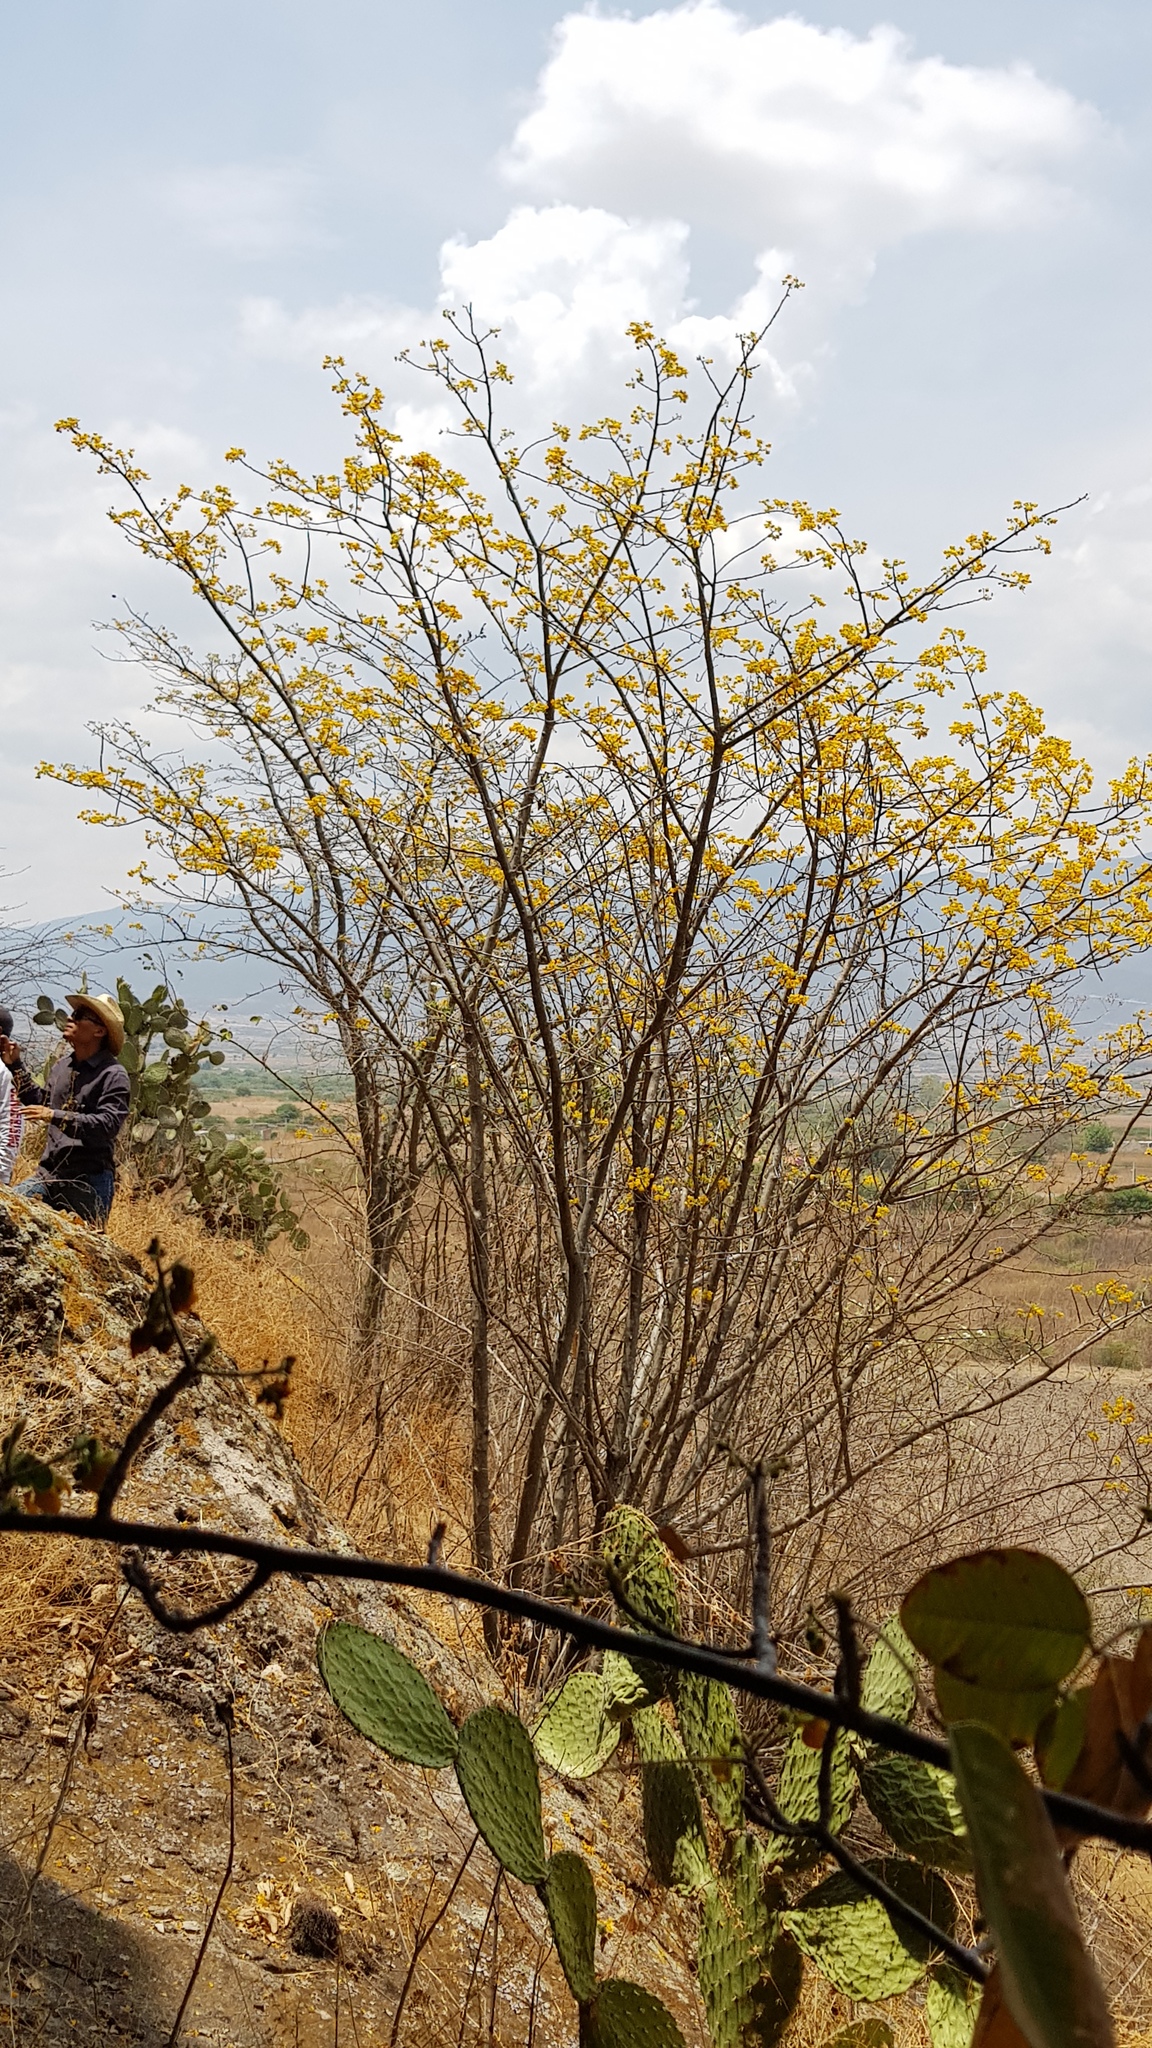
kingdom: Plantae
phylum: Tracheophyta
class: Magnoliopsida
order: Fabales
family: Fabaceae
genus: Senna
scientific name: Senna atomaria
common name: Flor de san jose
